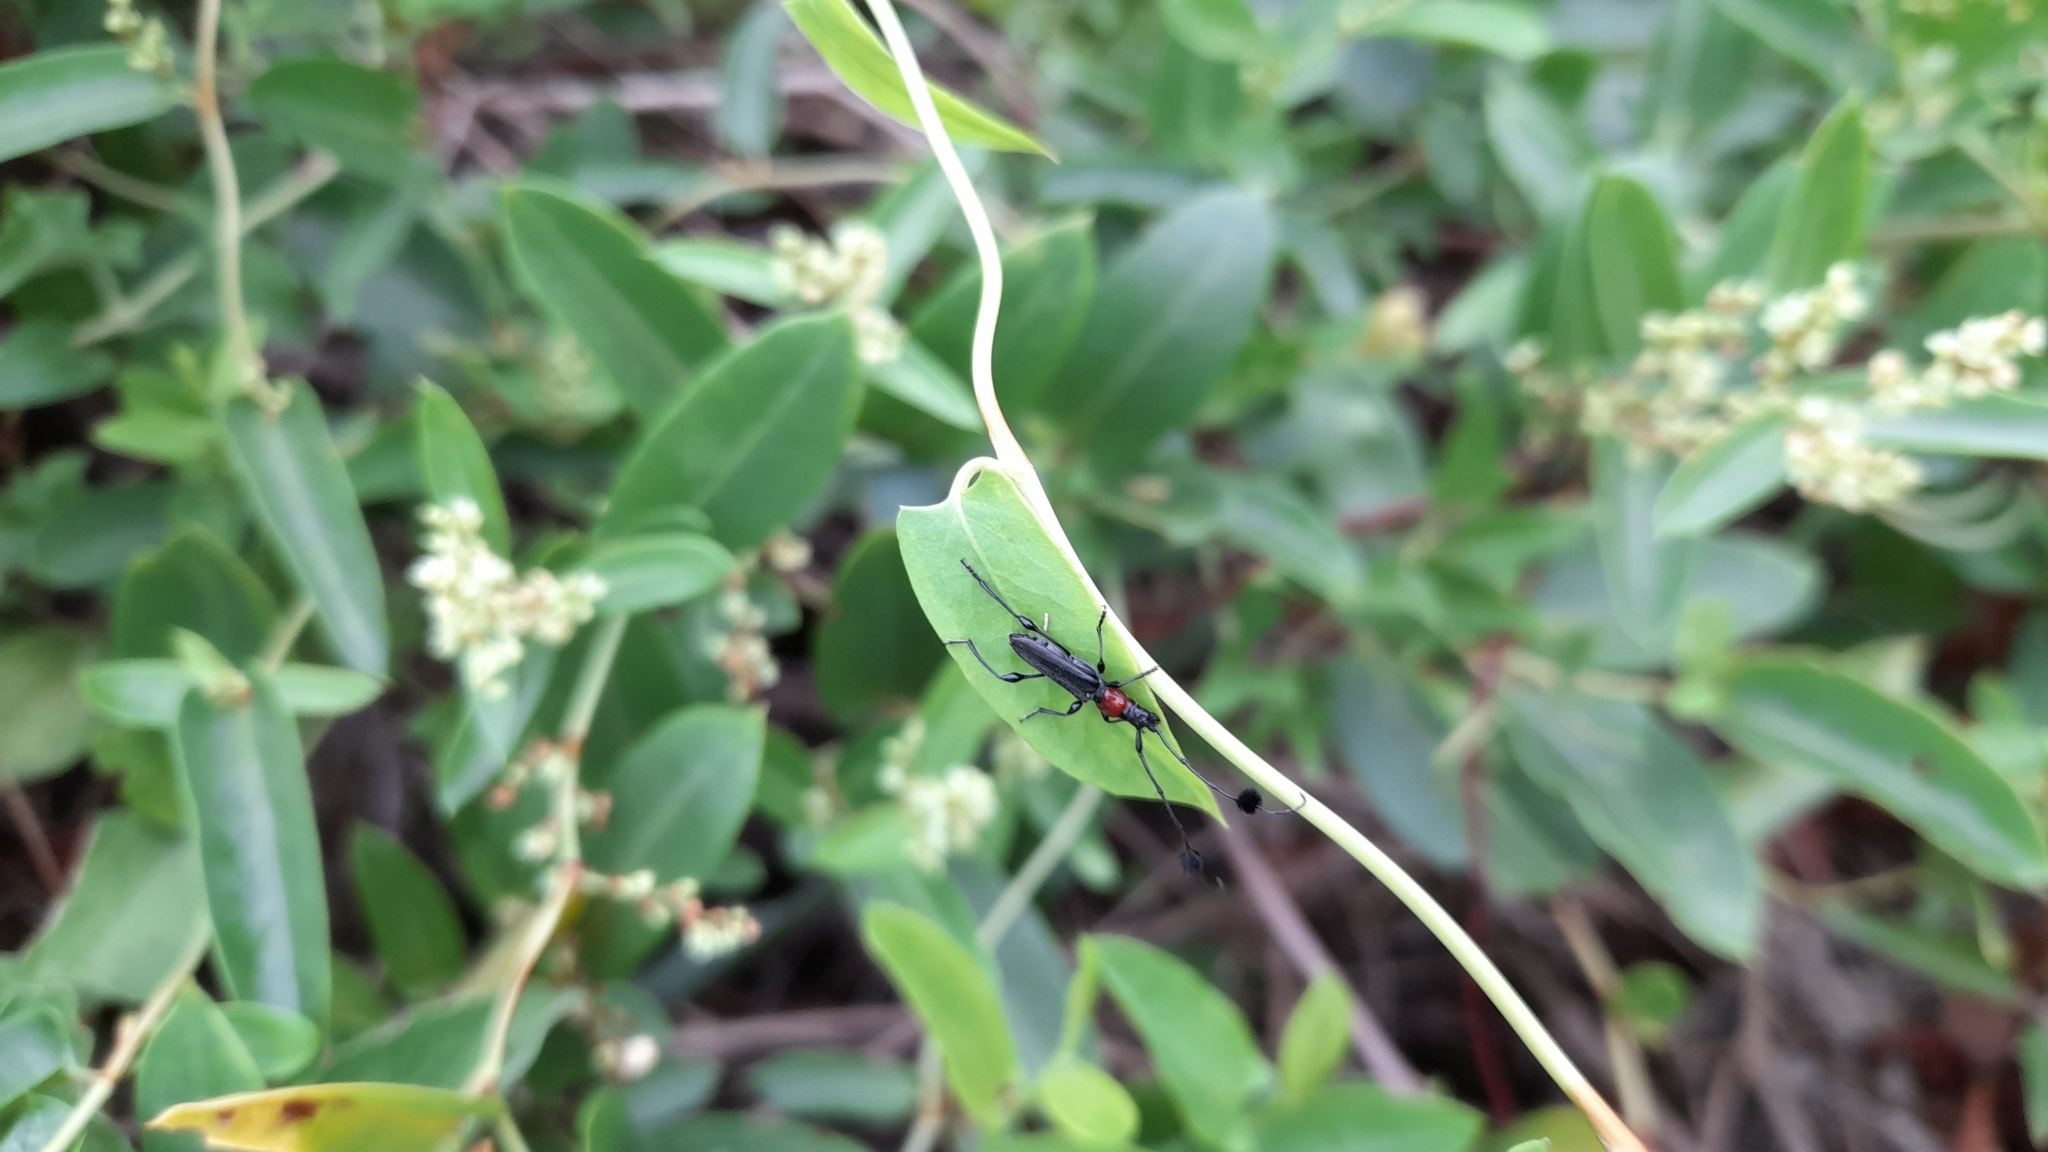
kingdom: Animalia
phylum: Arthropoda
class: Insecta
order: Coleoptera
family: Cerambycidae
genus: Cosmisoma
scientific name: Cosmisoma brullei
